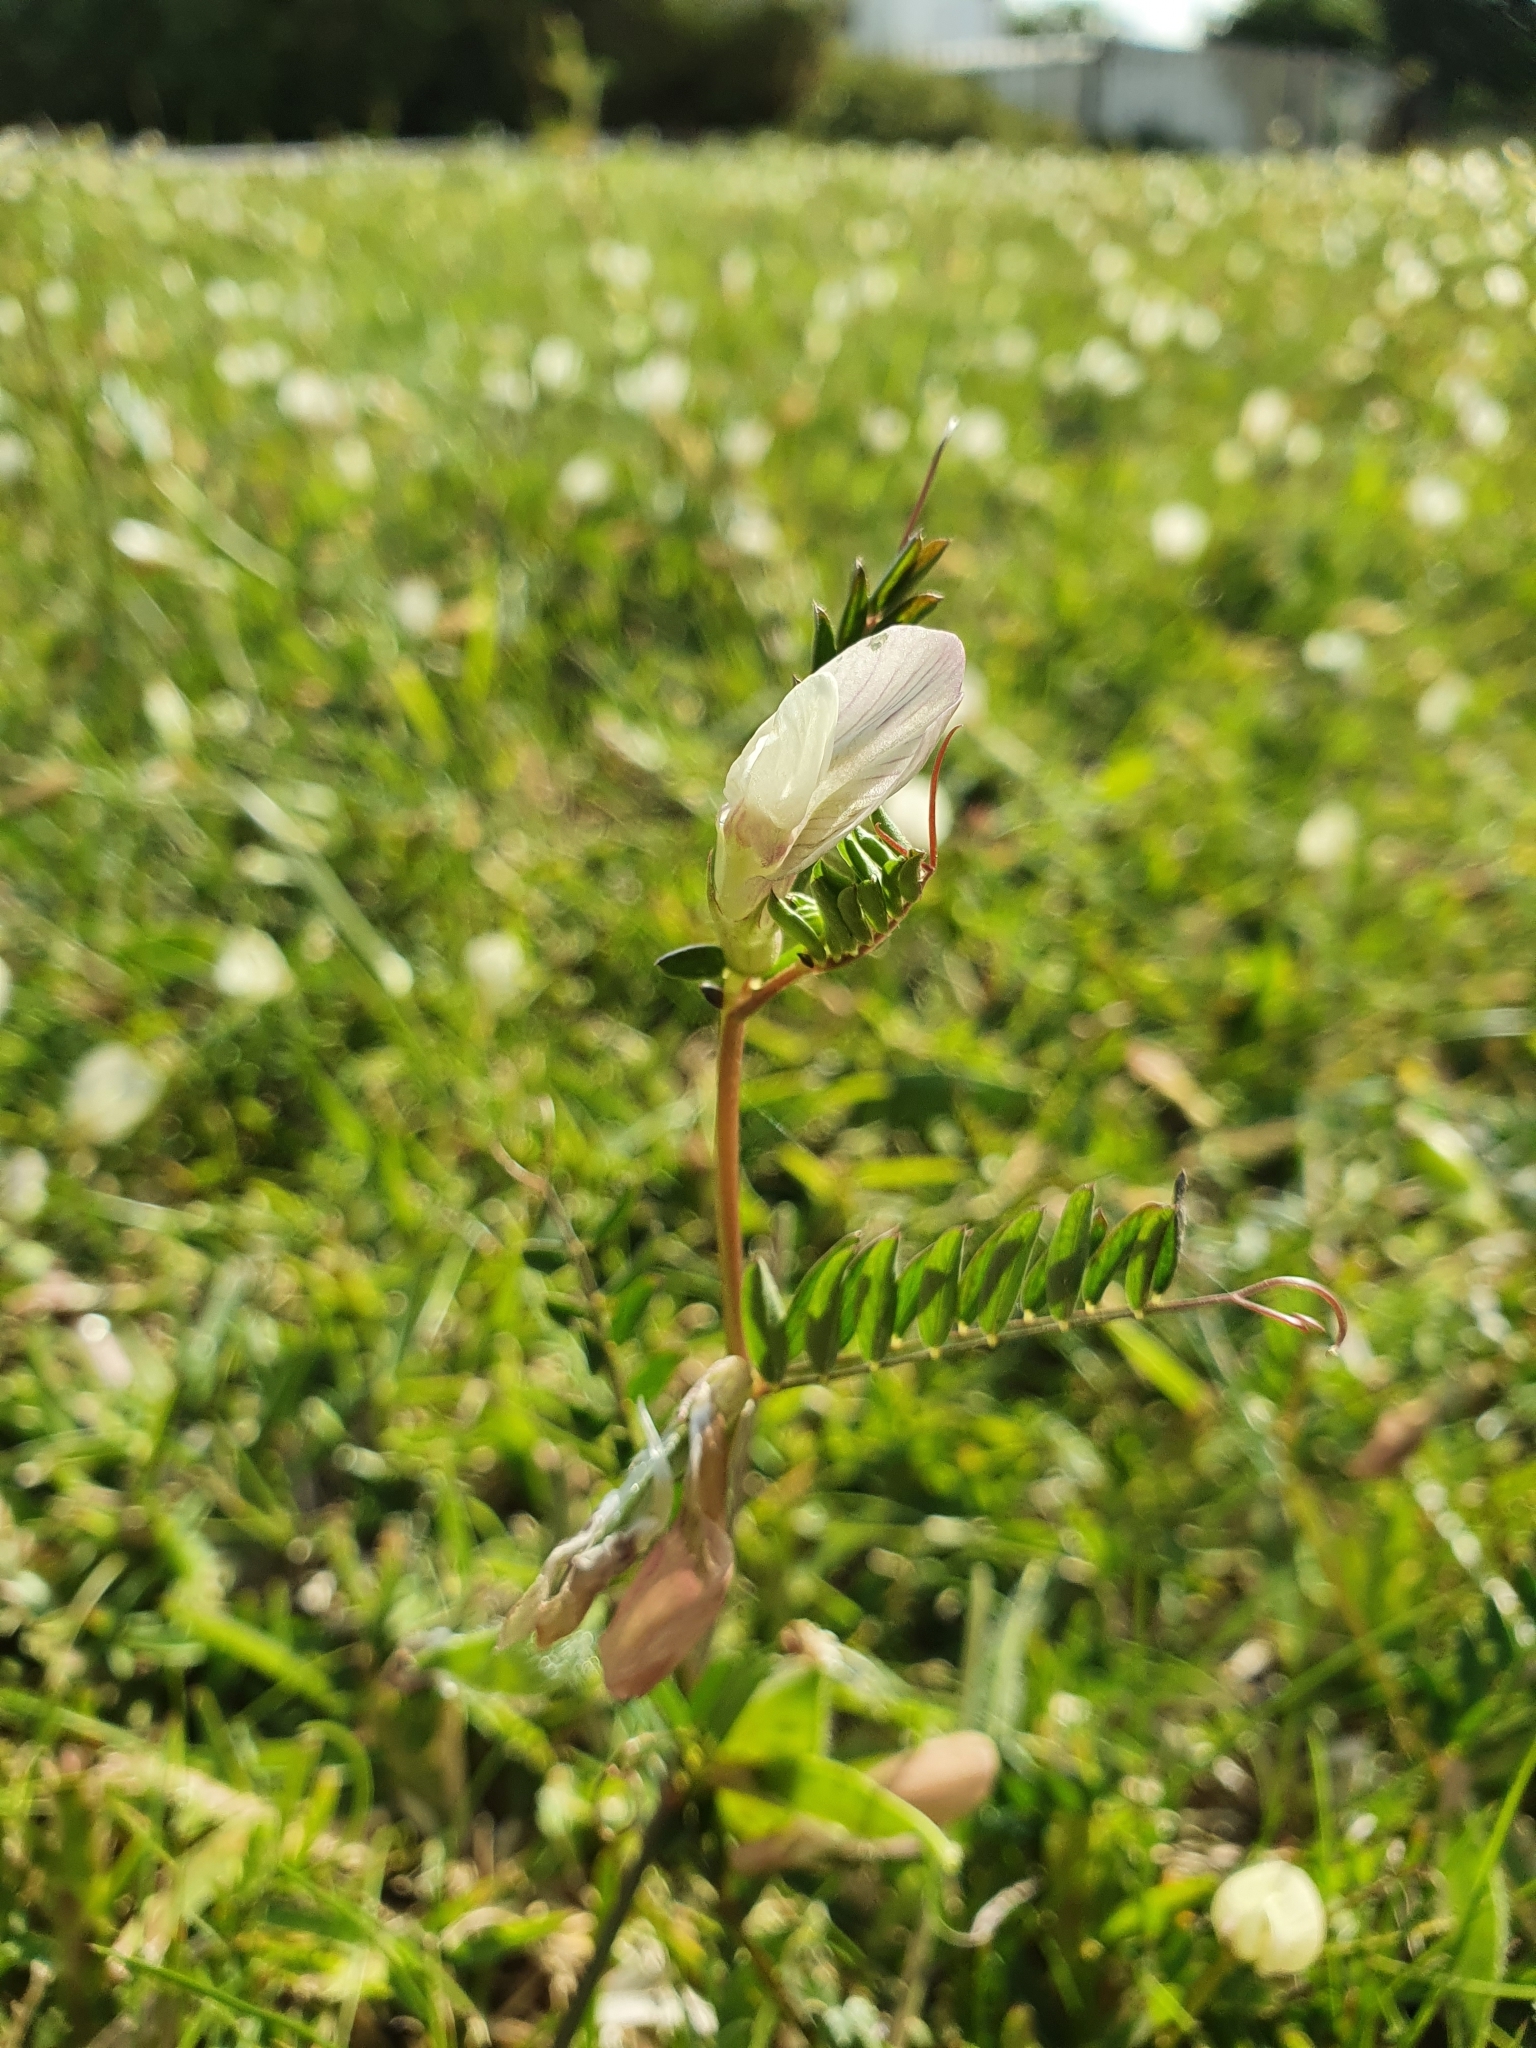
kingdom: Plantae
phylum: Tracheophyta
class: Magnoliopsida
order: Fabales
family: Fabaceae
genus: Vicia
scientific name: Vicia lutea
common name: Smooth yellow vetch
